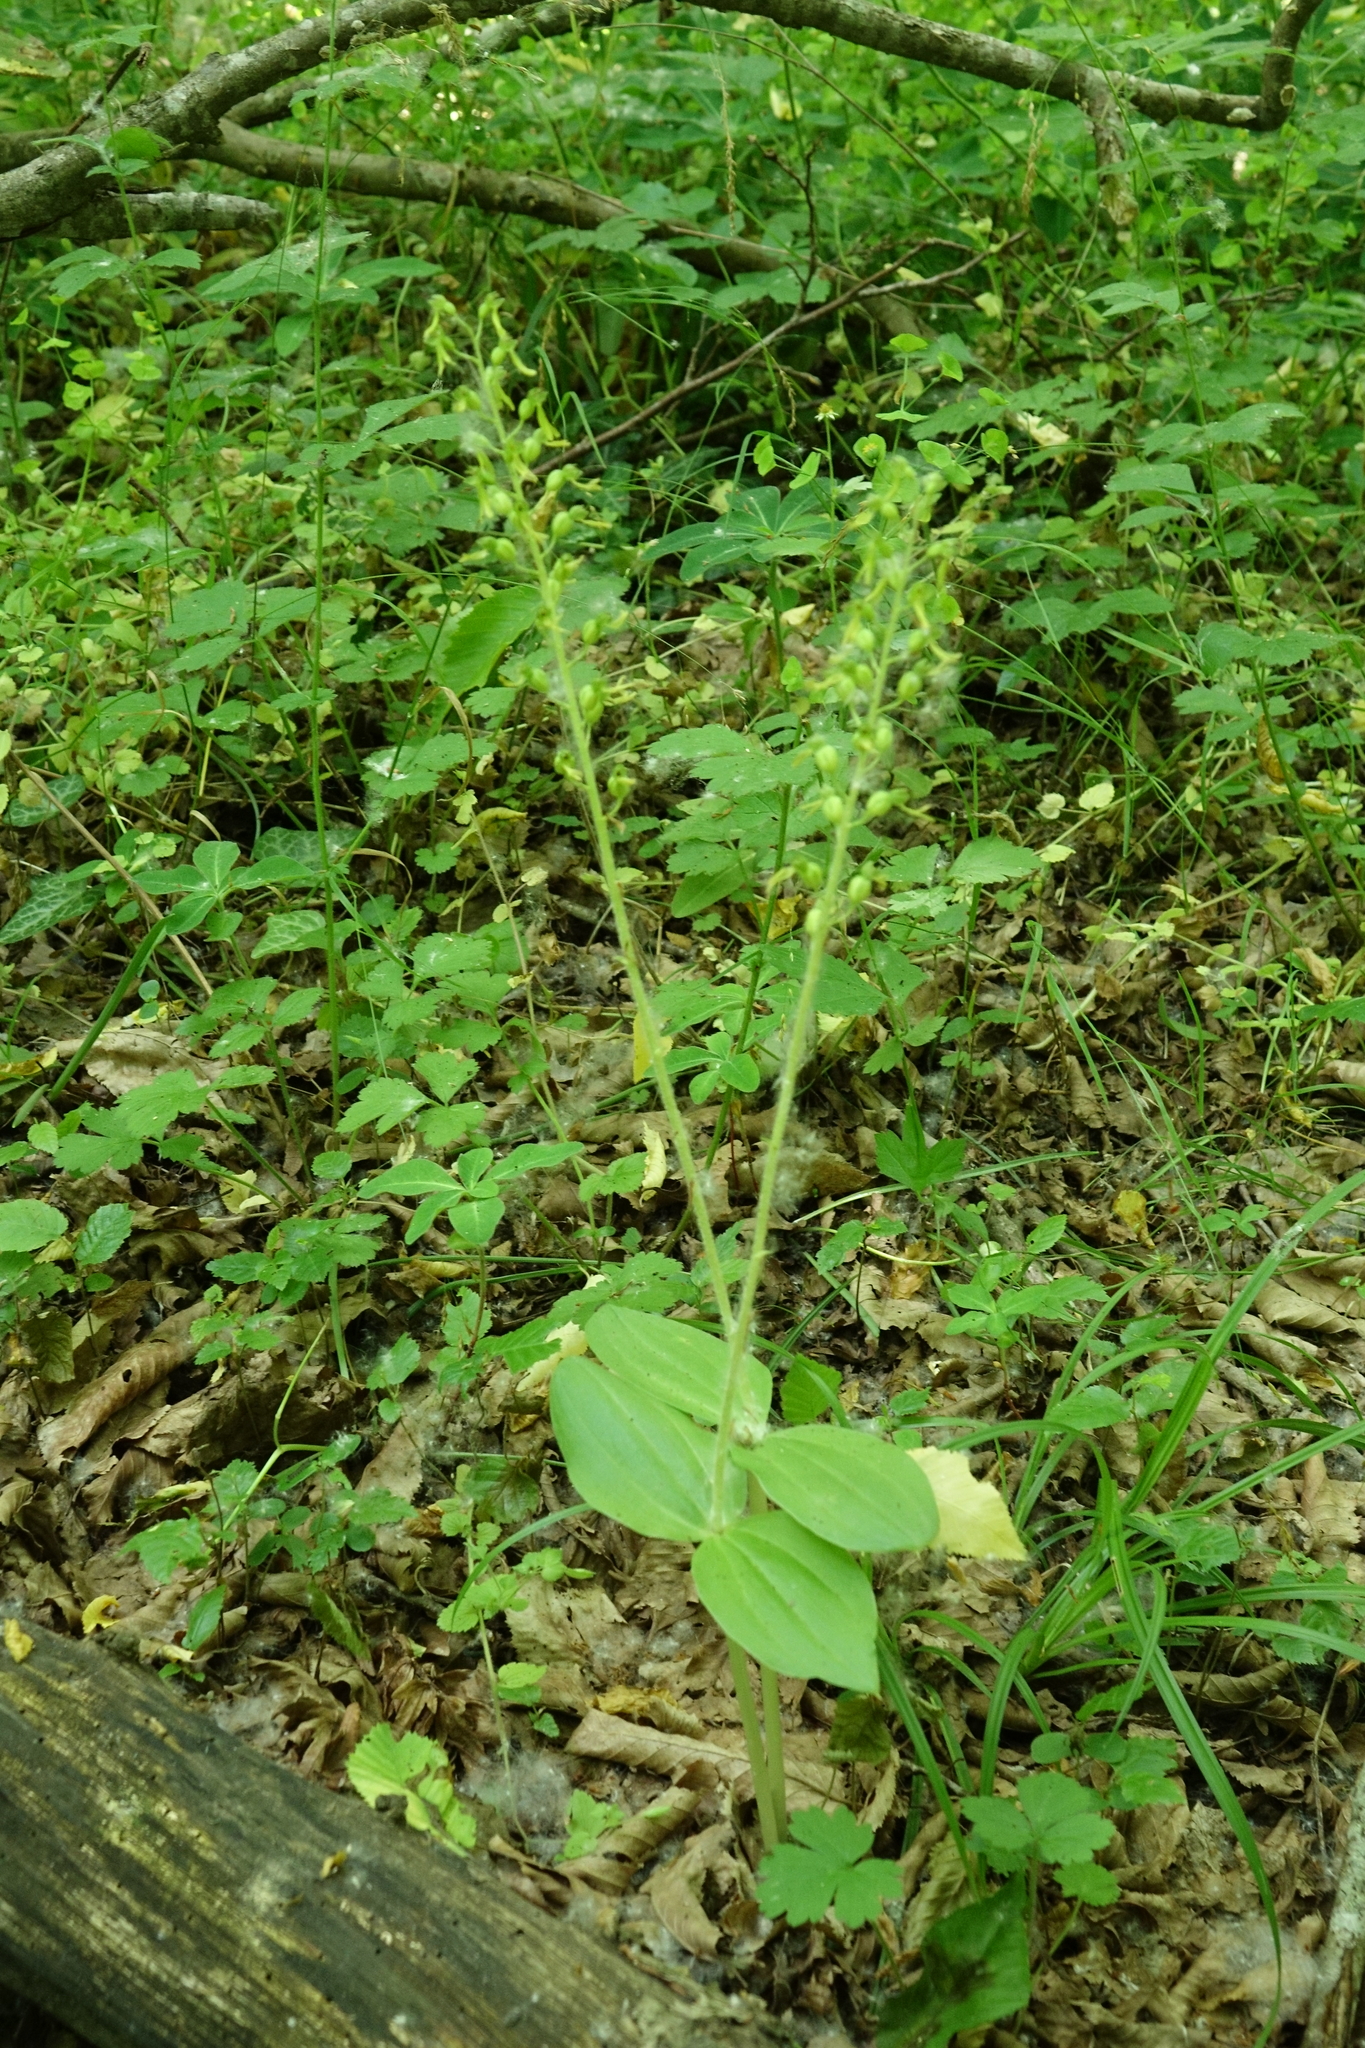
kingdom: Plantae
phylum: Tracheophyta
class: Liliopsida
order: Asparagales
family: Orchidaceae
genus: Neottia
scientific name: Neottia ovata
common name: Common twayblade
